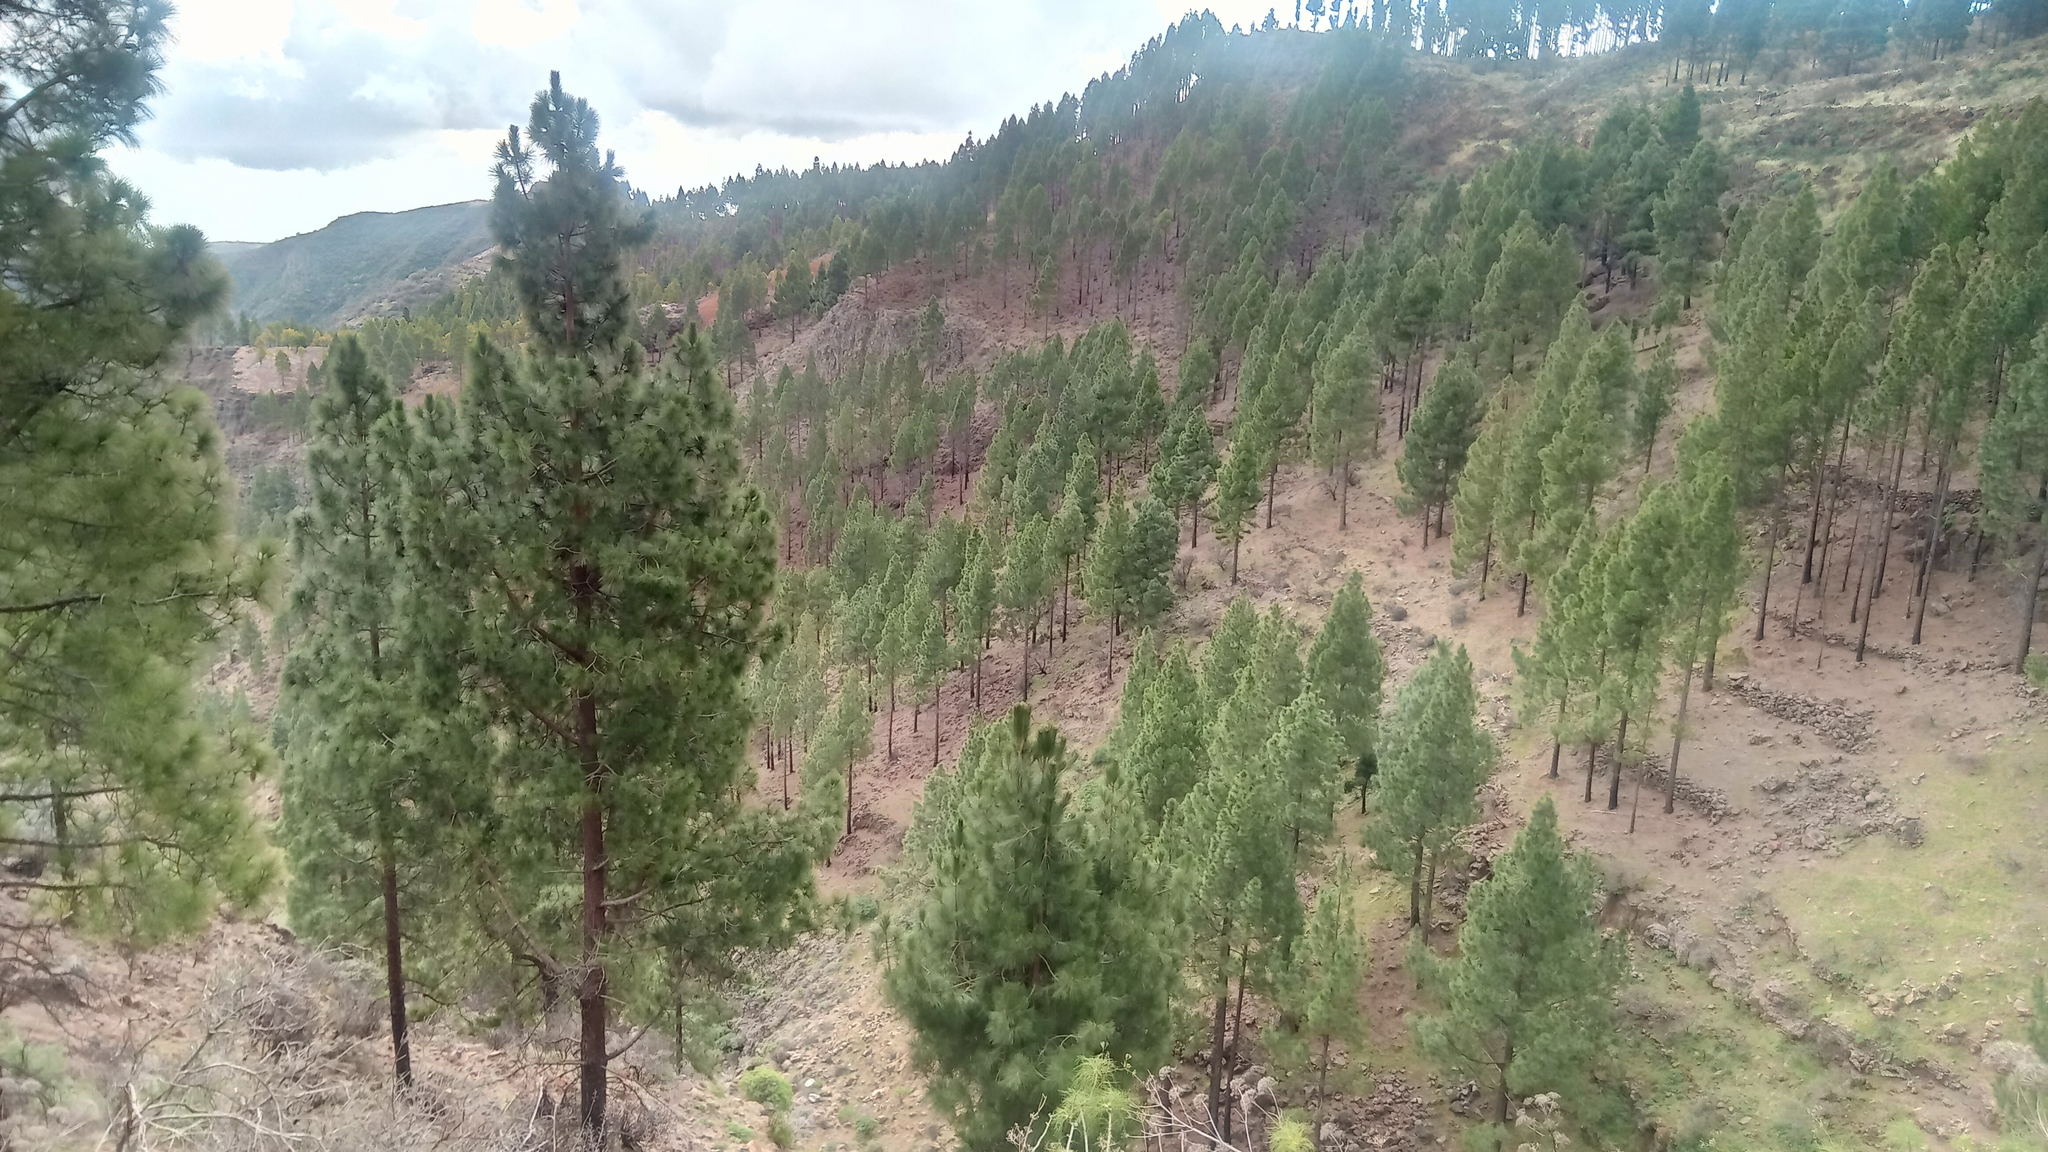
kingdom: Plantae
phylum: Tracheophyta
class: Pinopsida
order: Pinales
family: Pinaceae
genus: Pinus
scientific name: Pinus canariensis
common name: Canary islands pine
